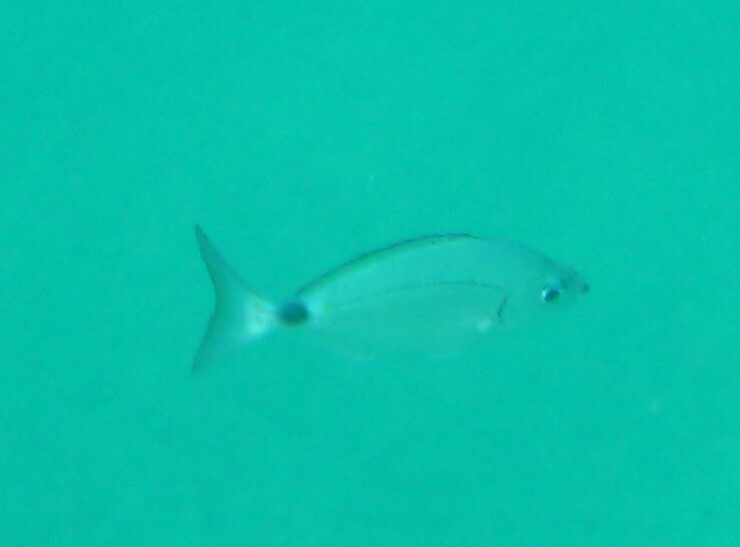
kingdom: Animalia
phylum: Chordata
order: Perciformes
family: Sparidae
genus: Oblada
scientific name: Oblada melanura
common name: Saddled seabream
